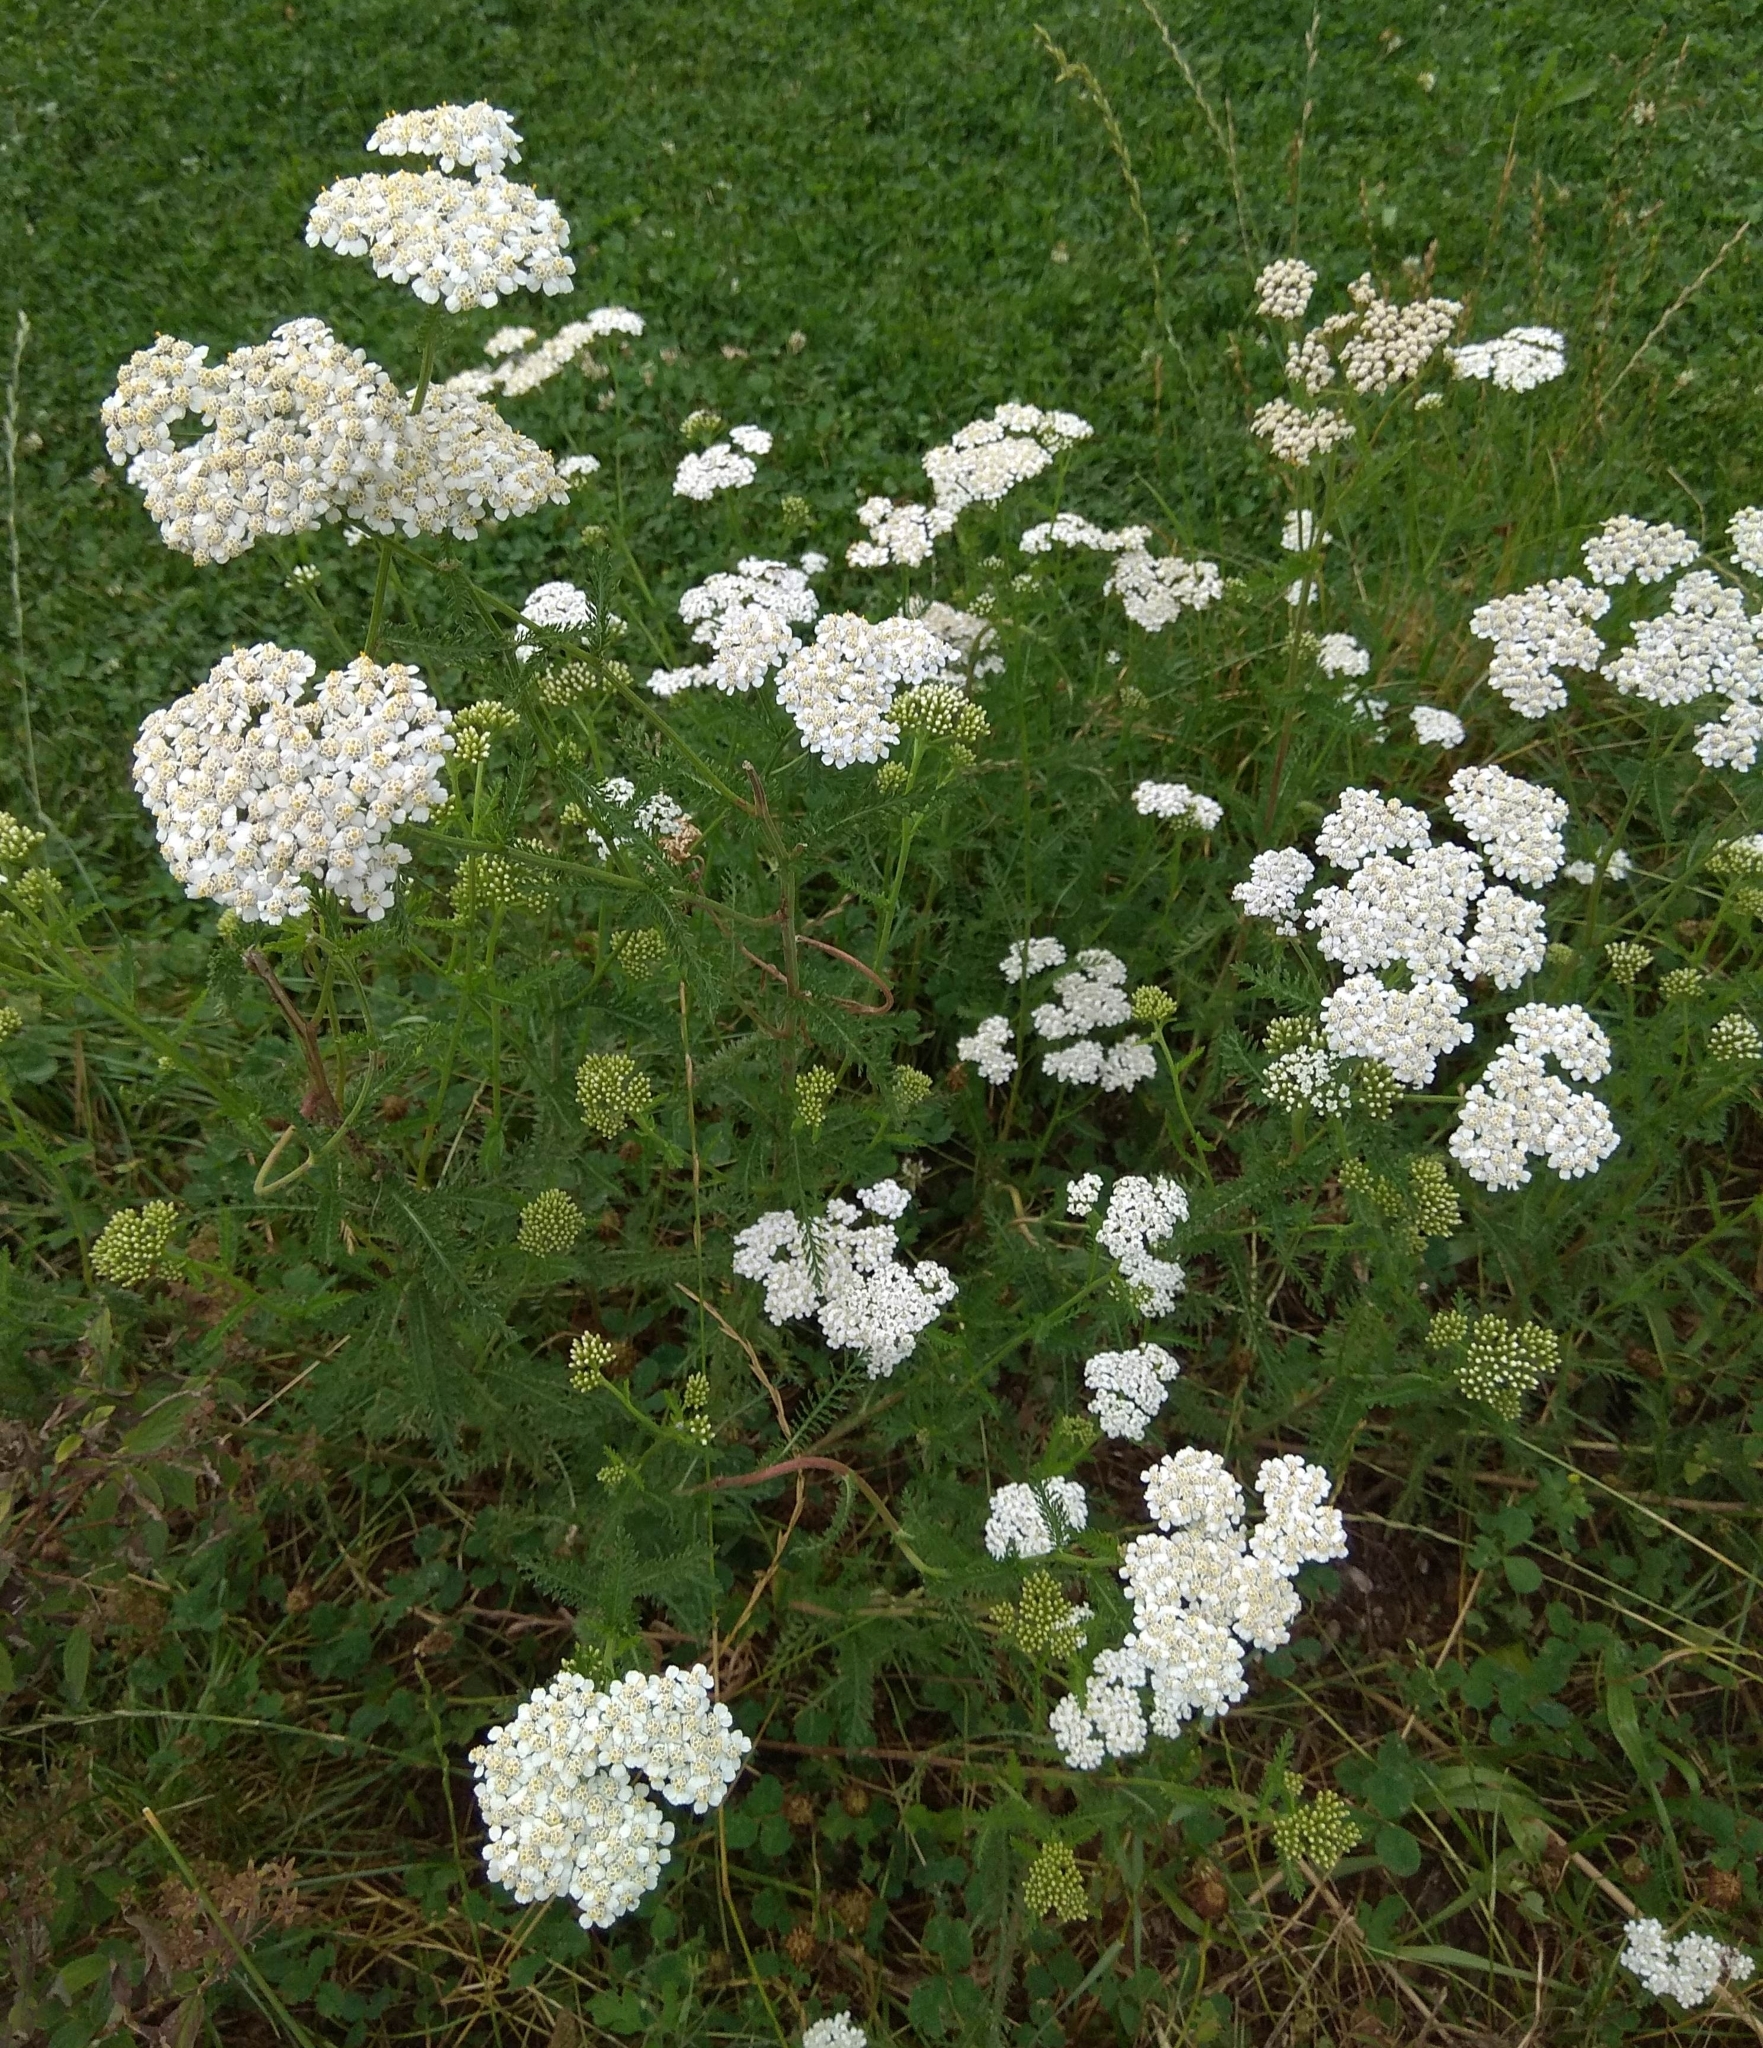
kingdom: Plantae
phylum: Tracheophyta
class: Magnoliopsida
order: Asterales
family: Asteraceae
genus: Achillea
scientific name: Achillea millefolium
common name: Yarrow
